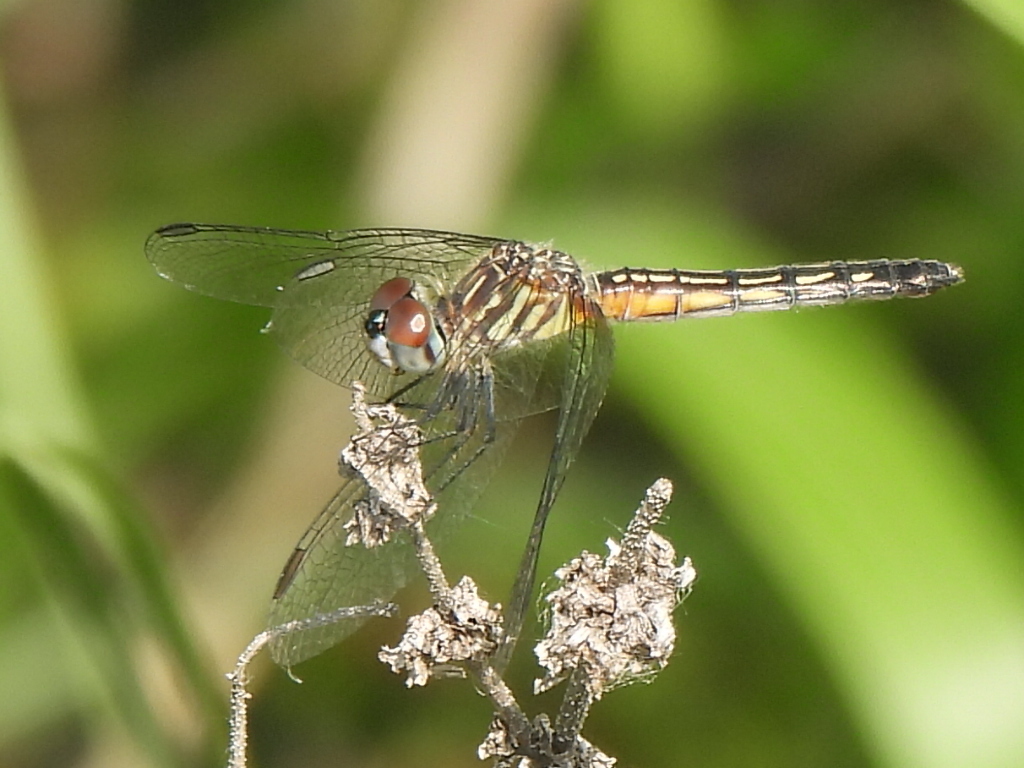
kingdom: Animalia
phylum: Arthropoda
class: Insecta
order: Odonata
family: Libellulidae
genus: Pachydiplax
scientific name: Pachydiplax longipennis
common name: Blue dasher
